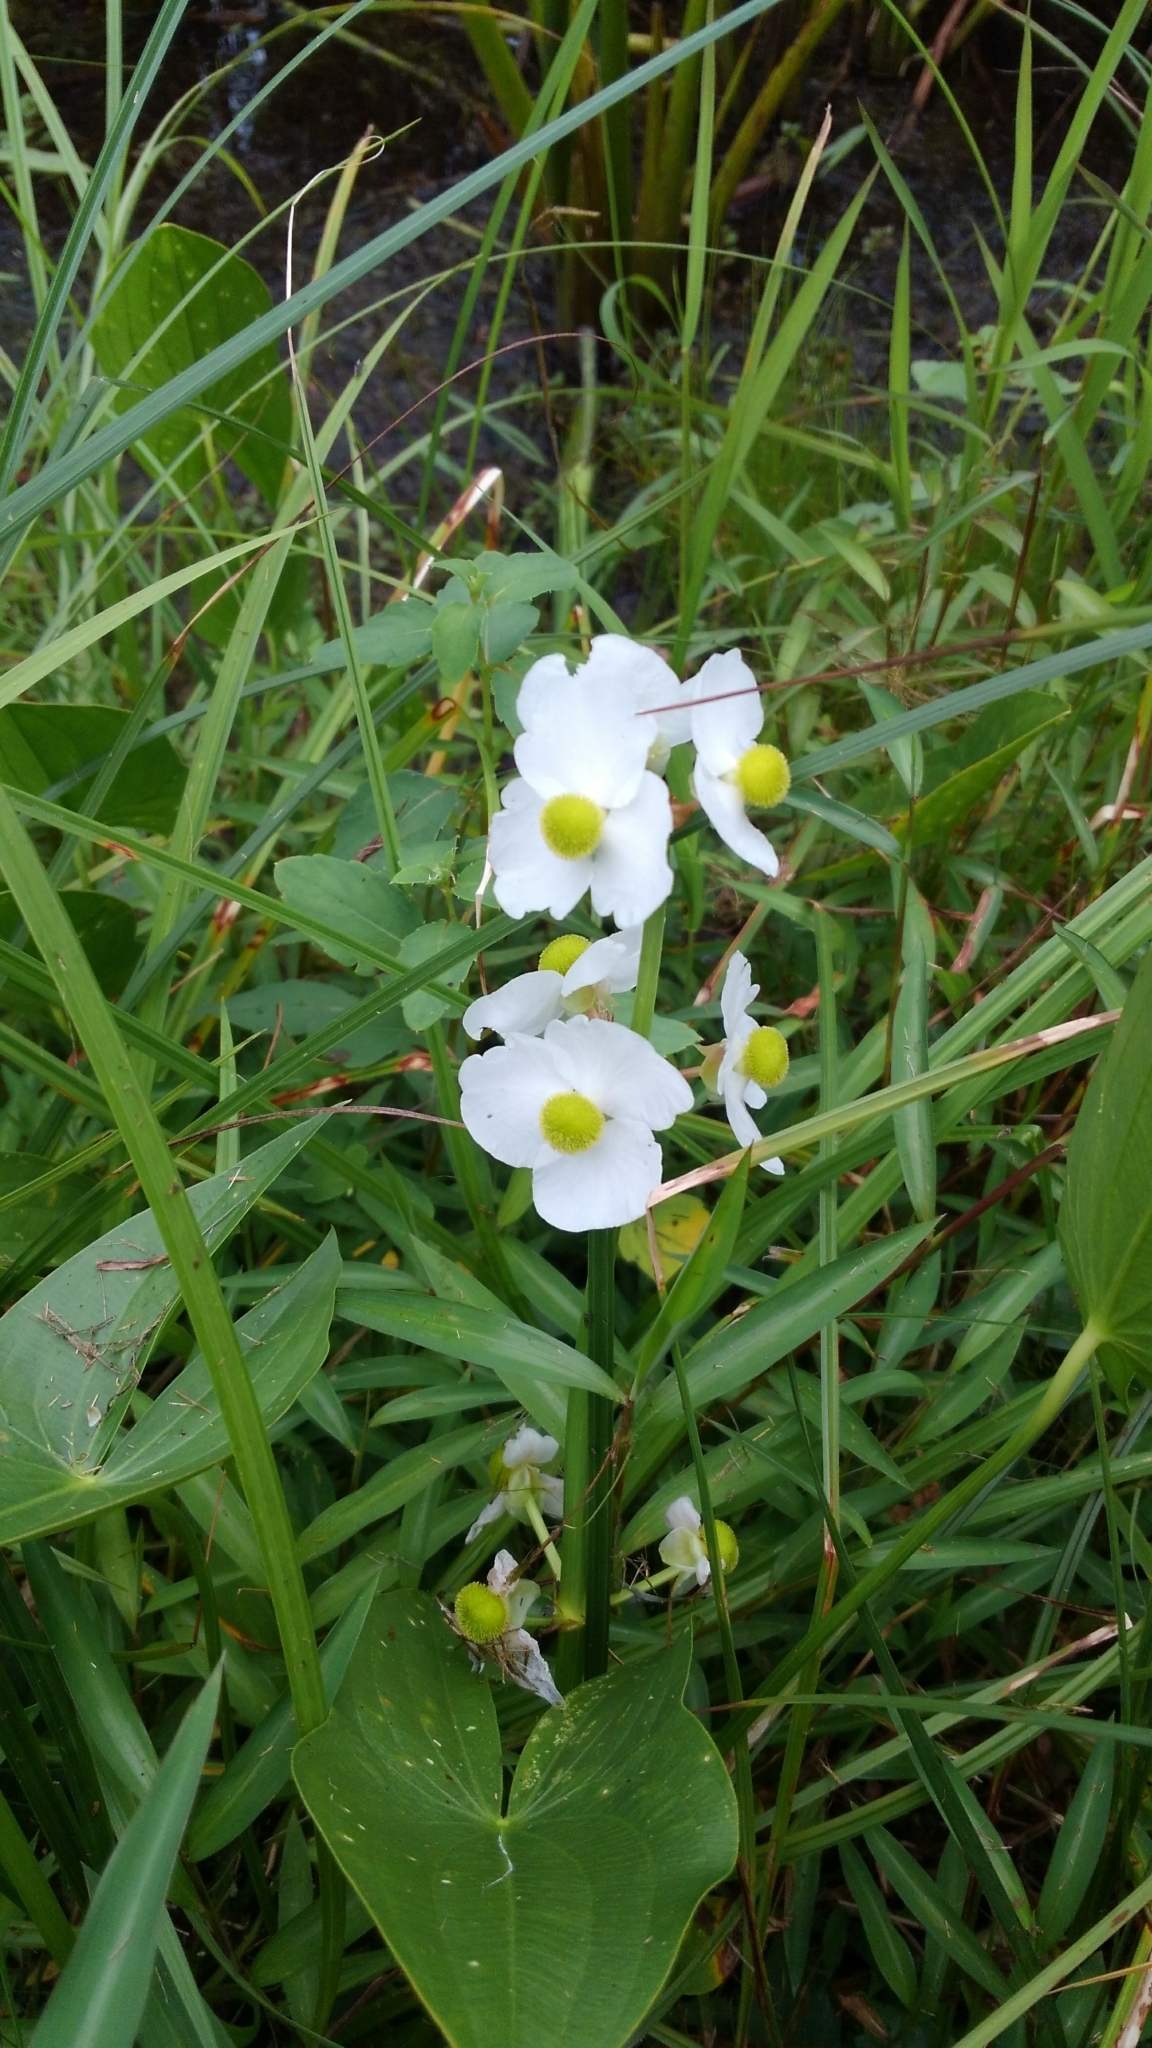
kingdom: Plantae
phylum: Tracheophyta
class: Liliopsida
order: Alismatales
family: Alismataceae
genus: Sagittaria
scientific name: Sagittaria latifolia
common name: Duck-potato
